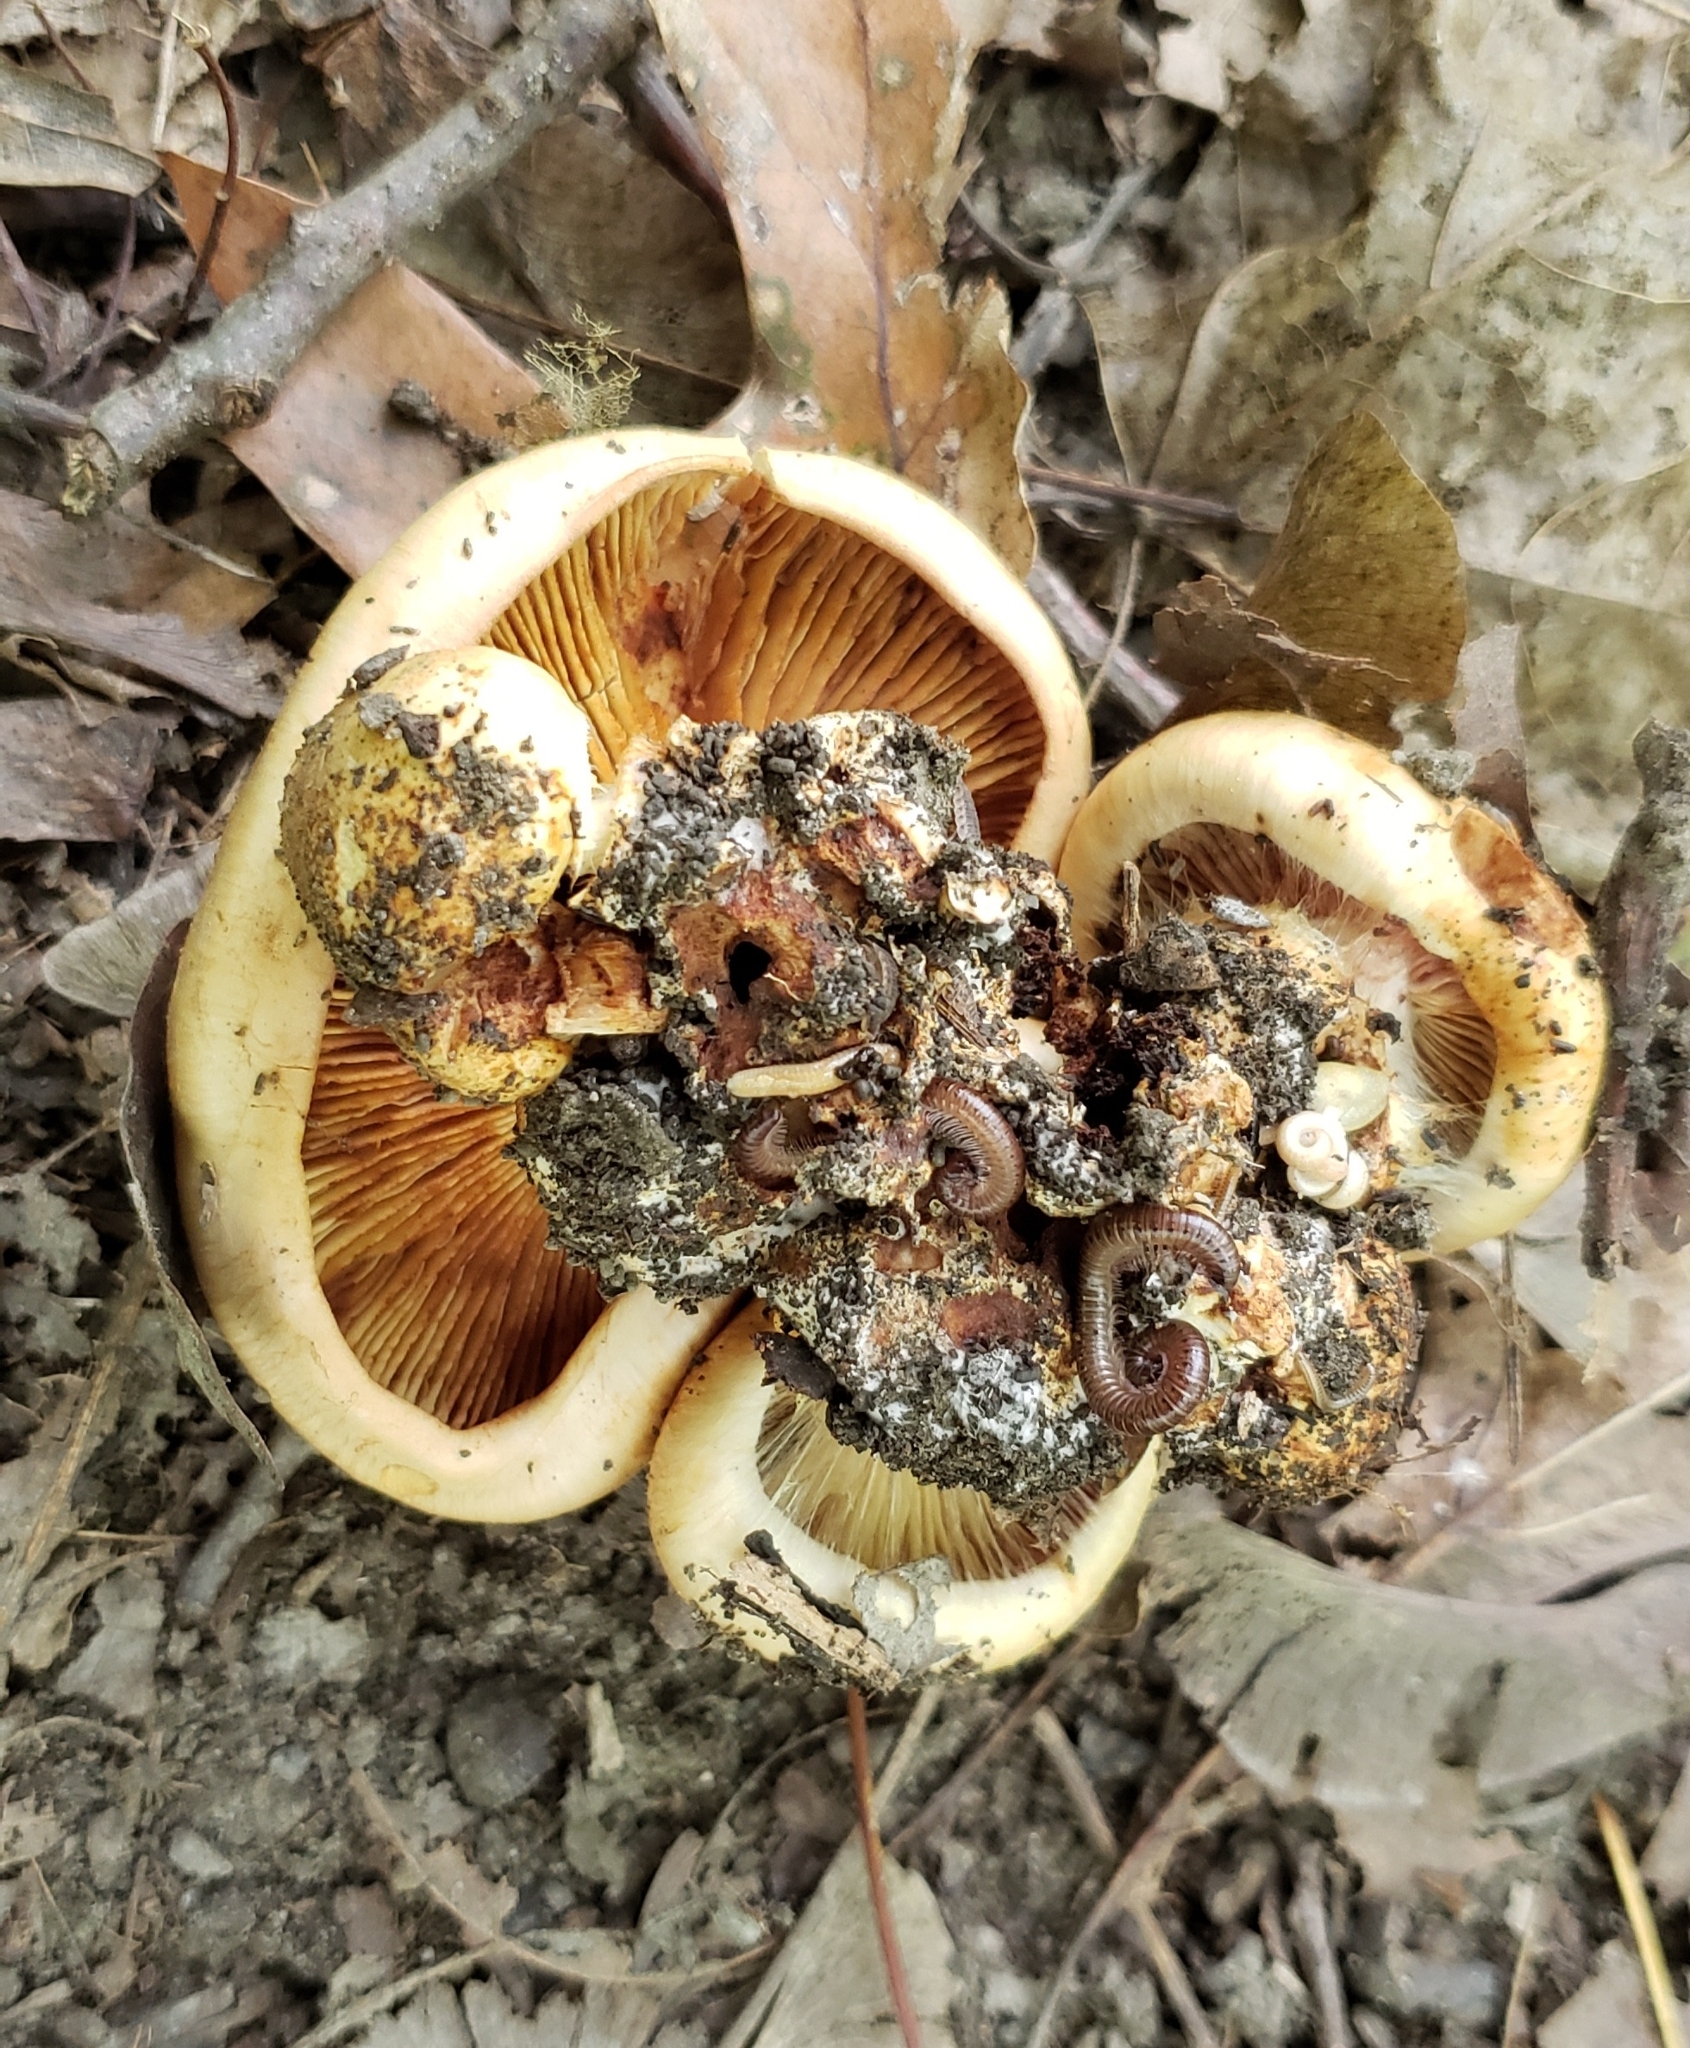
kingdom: Fungi
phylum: Basidiomycota
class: Agaricomycetes
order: Agaricales
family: Cortinariaceae
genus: Calonarius
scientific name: Calonarius caryae
